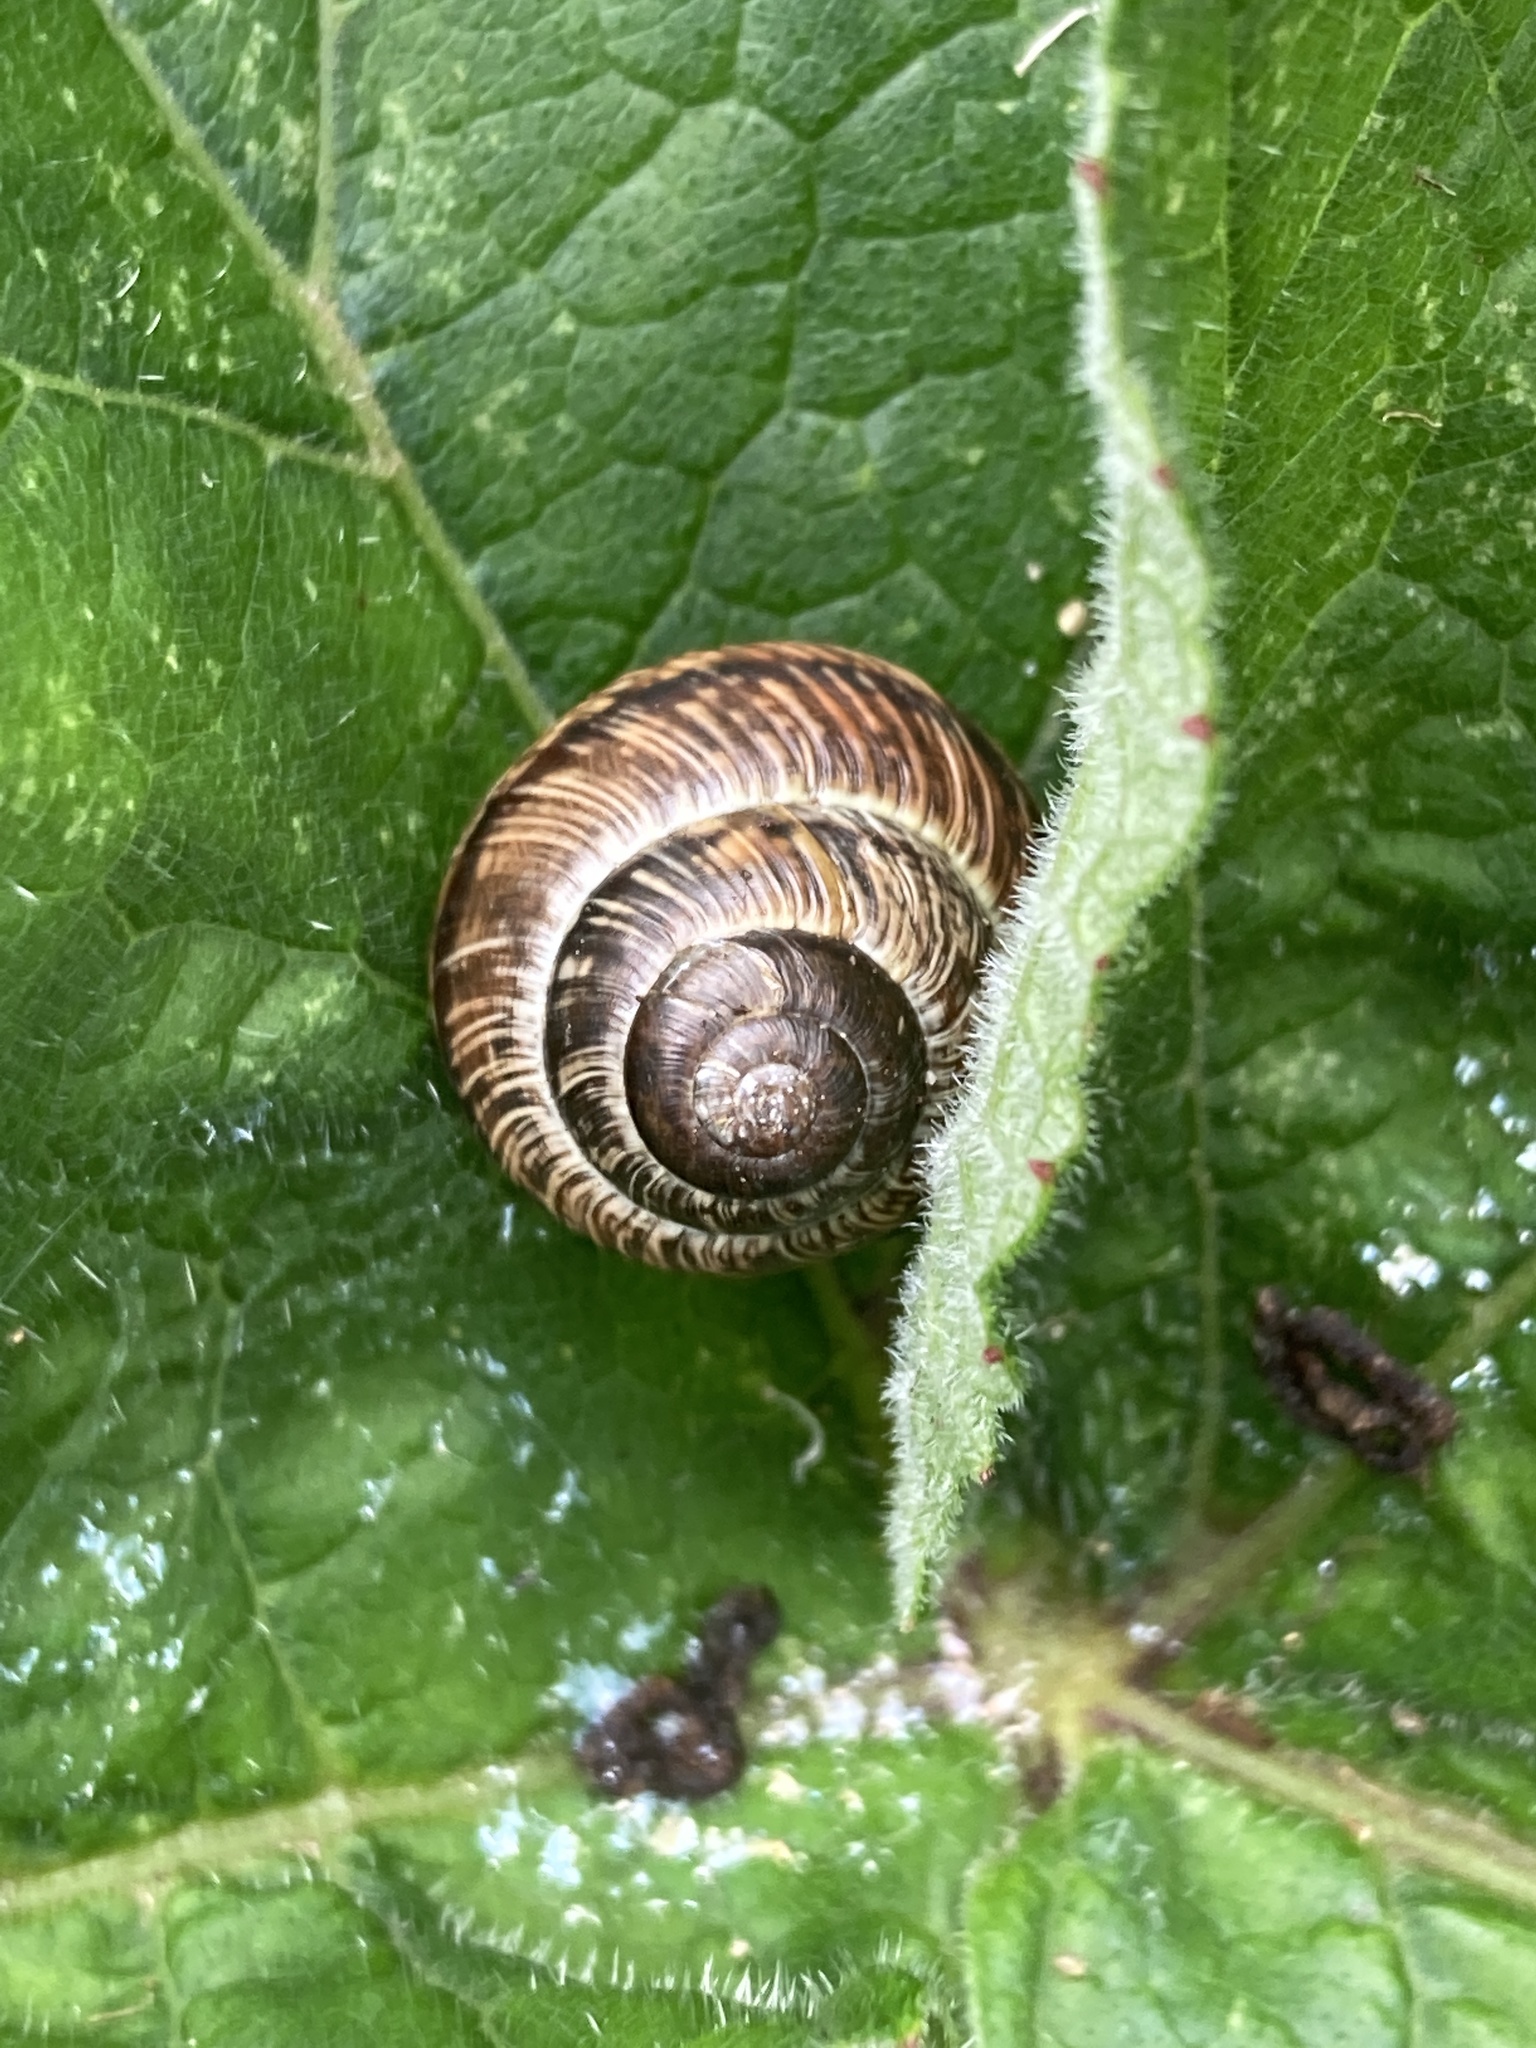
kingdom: Animalia
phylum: Mollusca
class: Gastropoda
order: Stylommatophora
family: Helicidae
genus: Arianta
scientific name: Arianta arbustorum
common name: Copse snail
